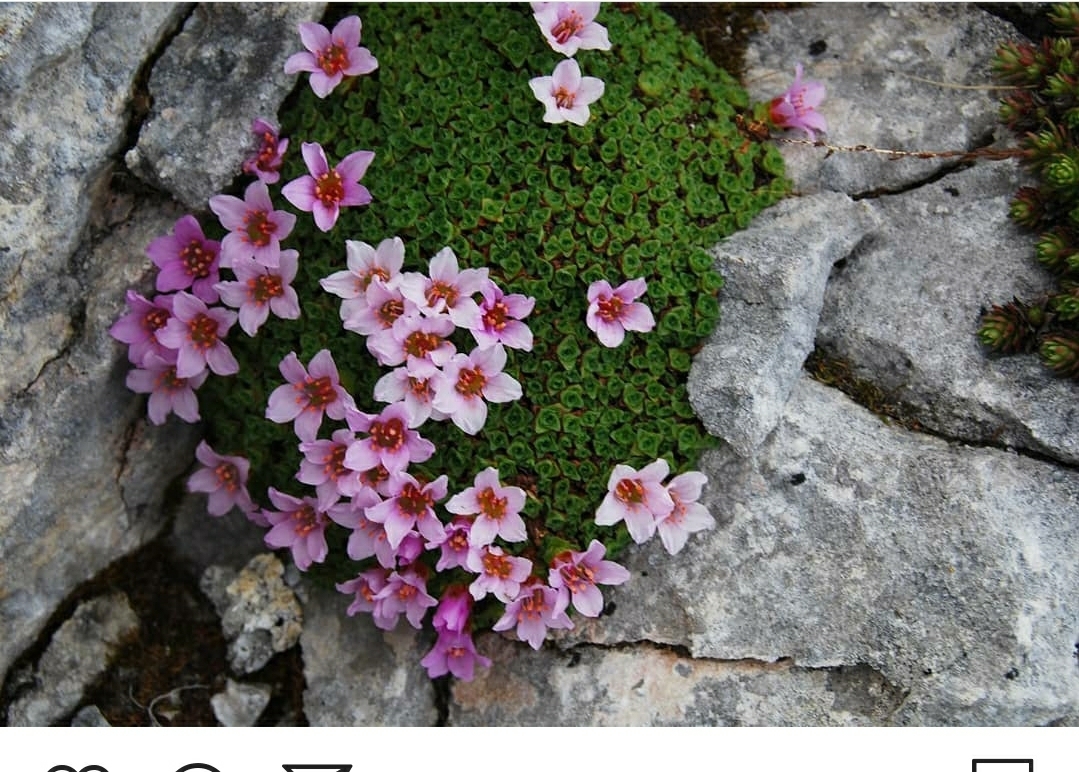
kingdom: Plantae
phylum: Tracheophyta
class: Magnoliopsida
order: Saxifragales
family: Saxifragaceae
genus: Saxifraga
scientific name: Saxifraga oppositifolia
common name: Purple saxifrage
